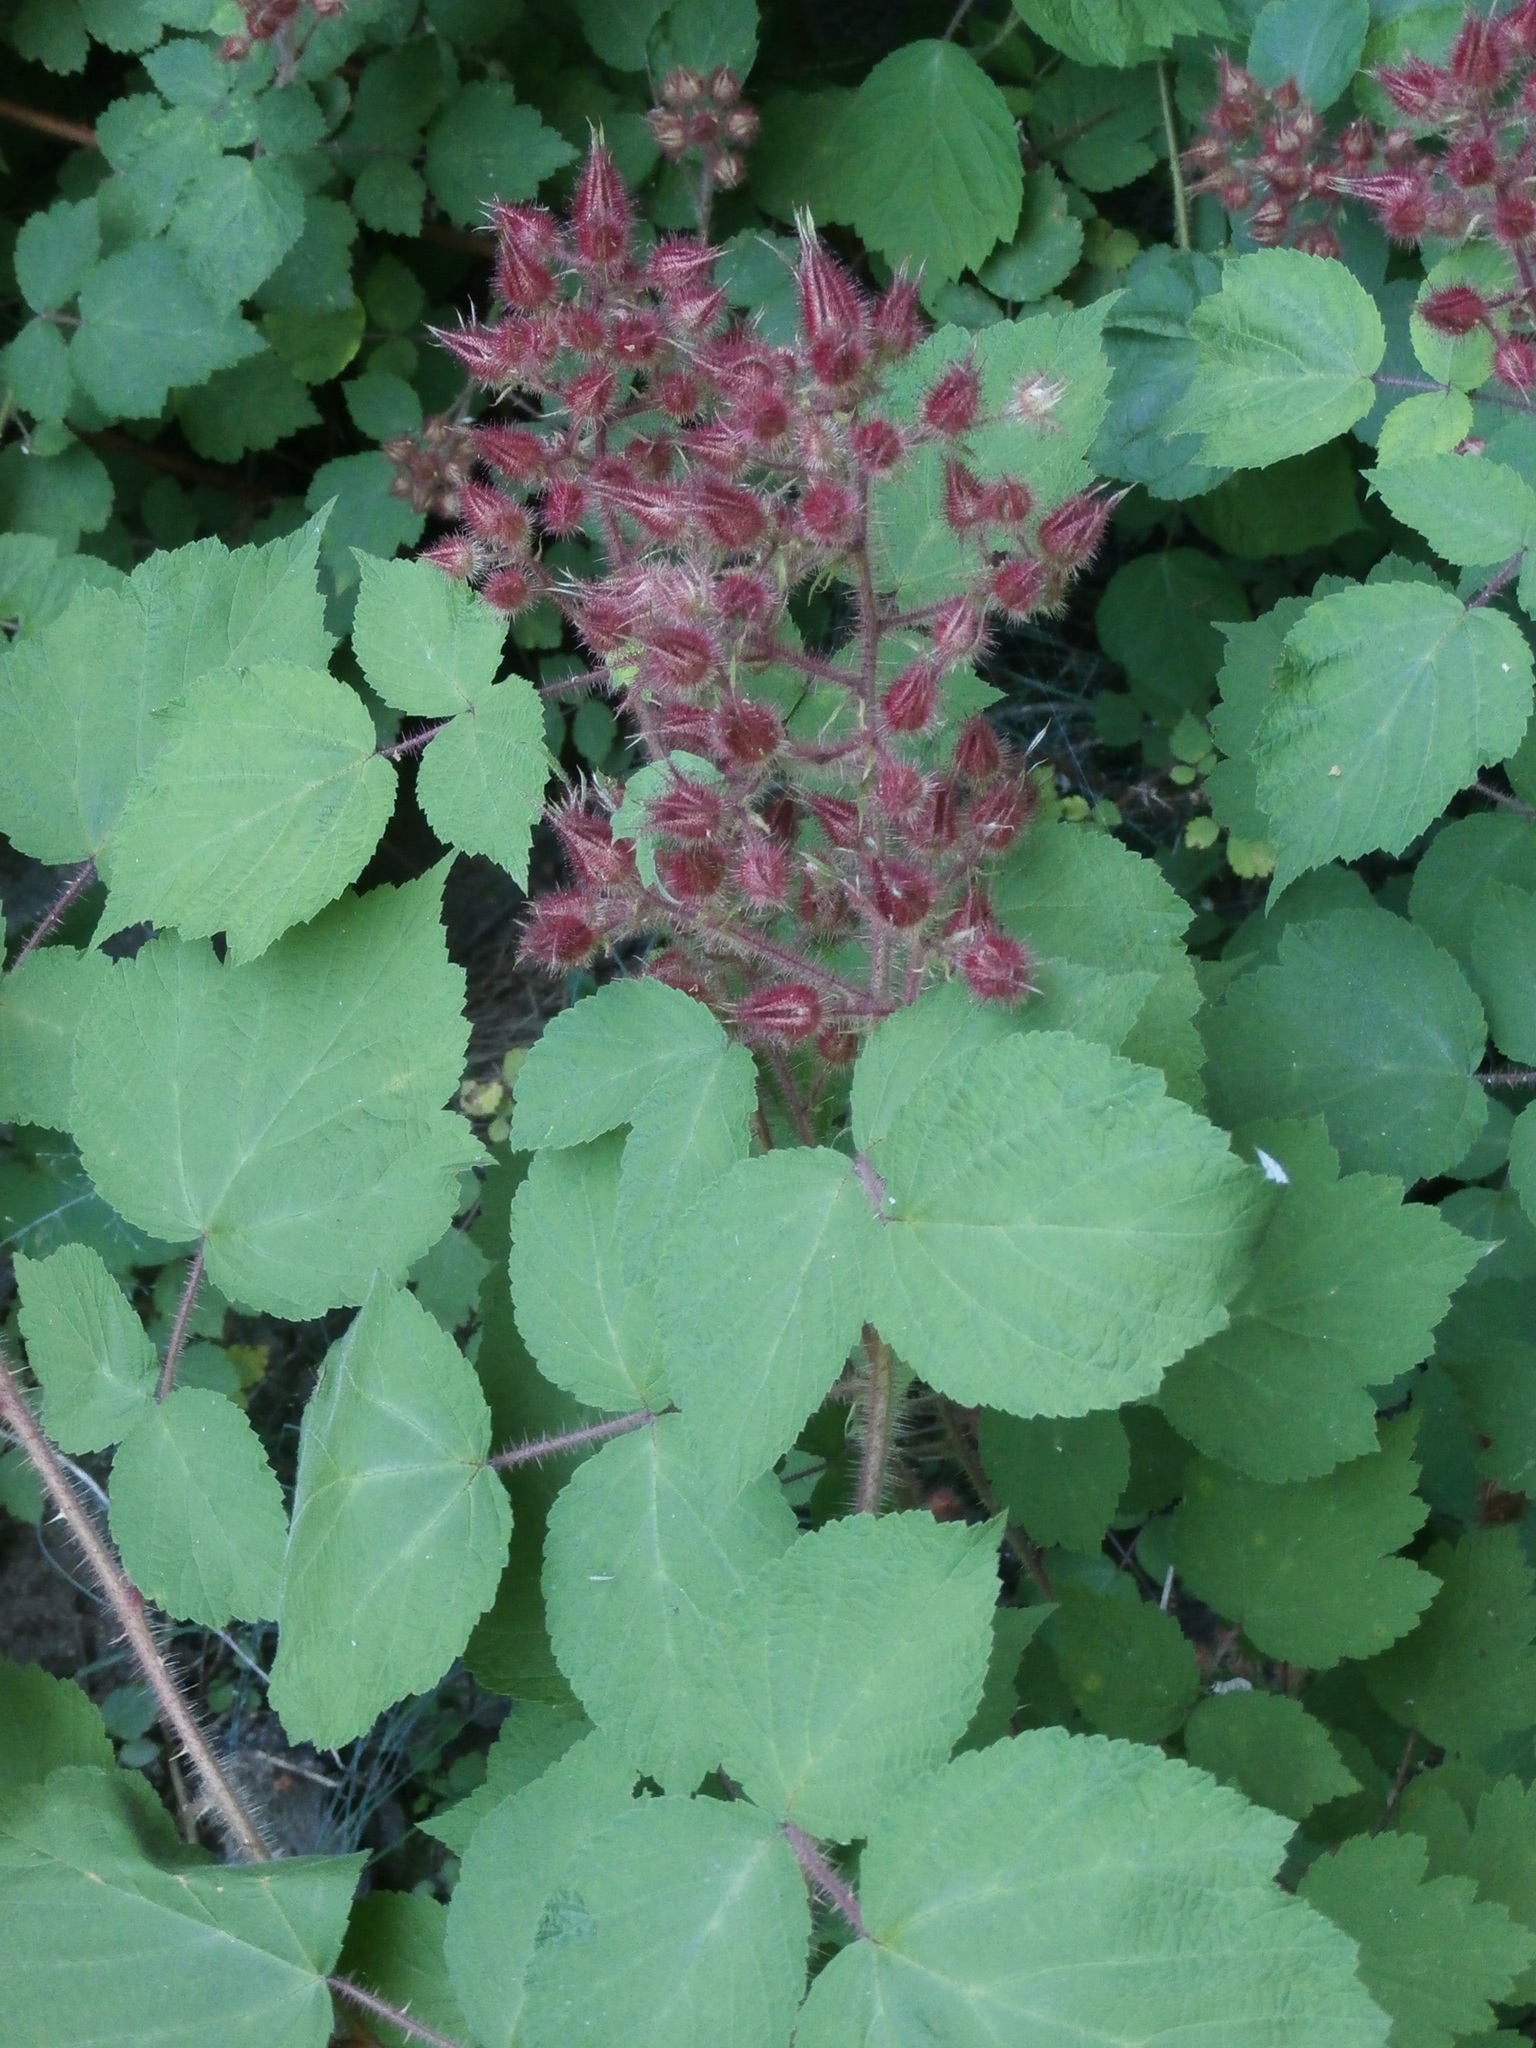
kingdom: Plantae
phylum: Tracheophyta
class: Magnoliopsida
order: Rosales
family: Rosaceae
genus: Rubus
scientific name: Rubus phoenicolasius
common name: Japanese wineberry
